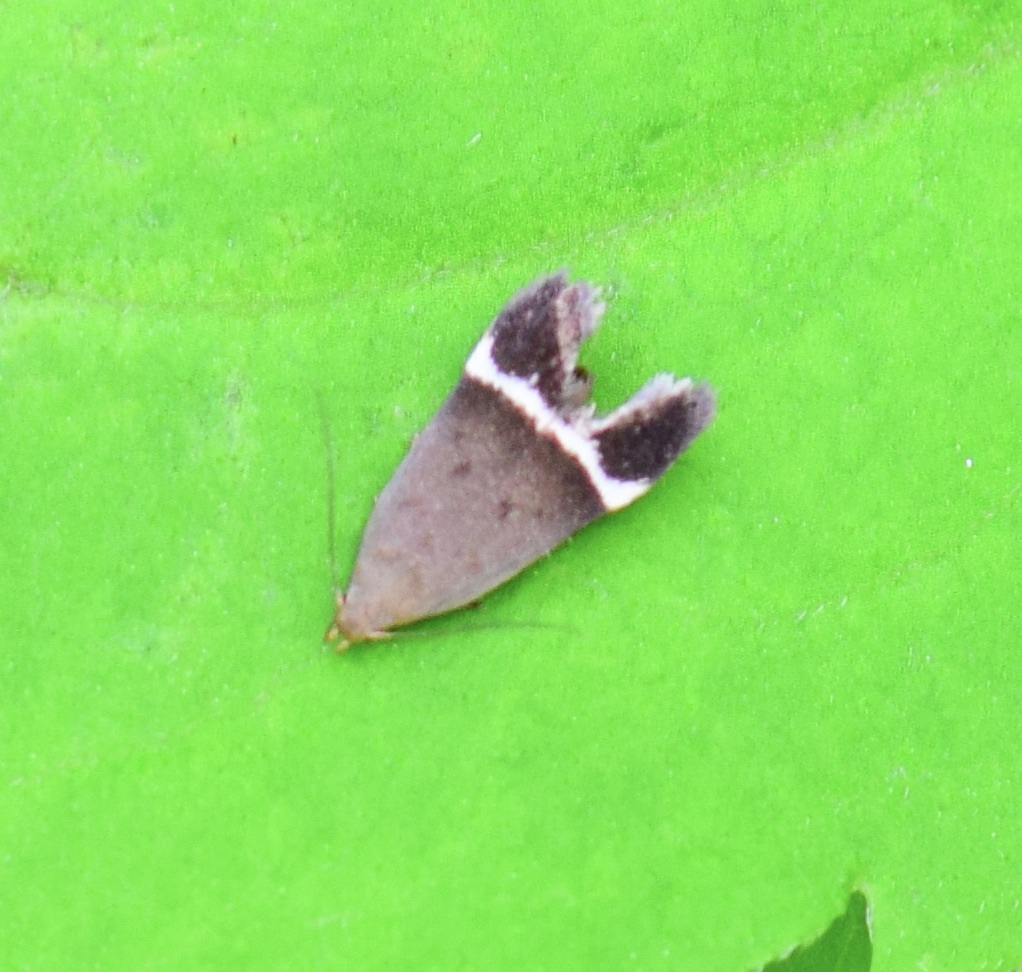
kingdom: Animalia
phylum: Arthropoda
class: Insecta
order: Lepidoptera
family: Gelechiidae
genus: Anacampsis
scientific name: Anacampsis agrimoniella
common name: Agrimony anacampsis moth
